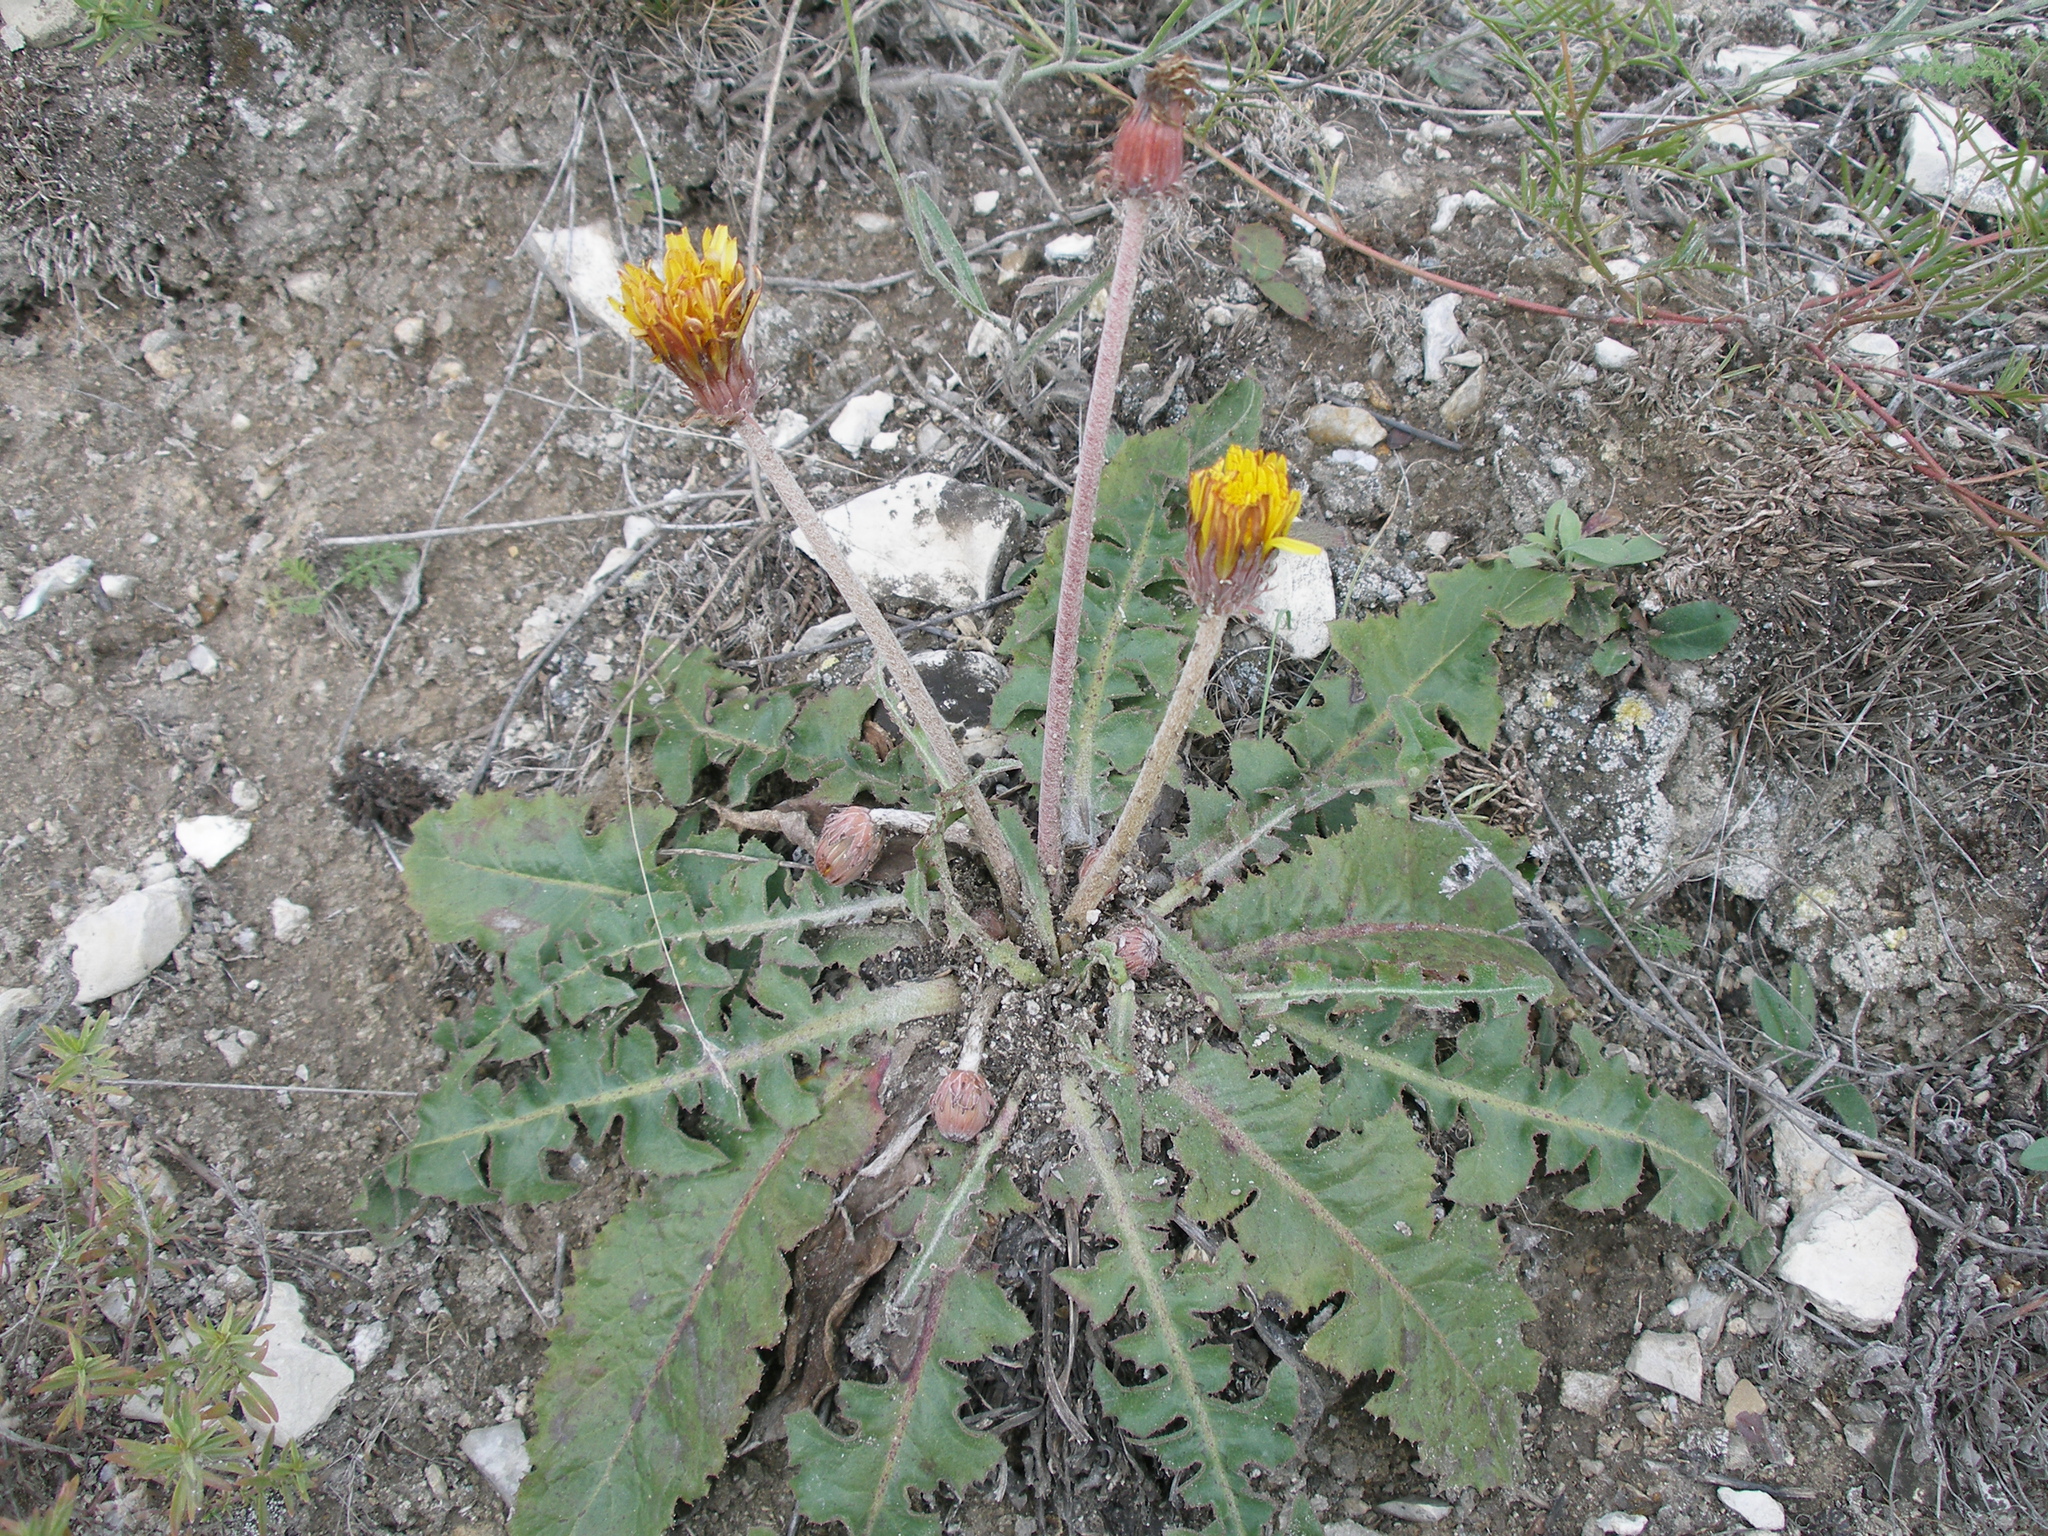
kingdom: Plantae
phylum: Tracheophyta
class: Magnoliopsida
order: Asterales
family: Asteraceae
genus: Taraxacum
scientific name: Taraxacum serotinum
